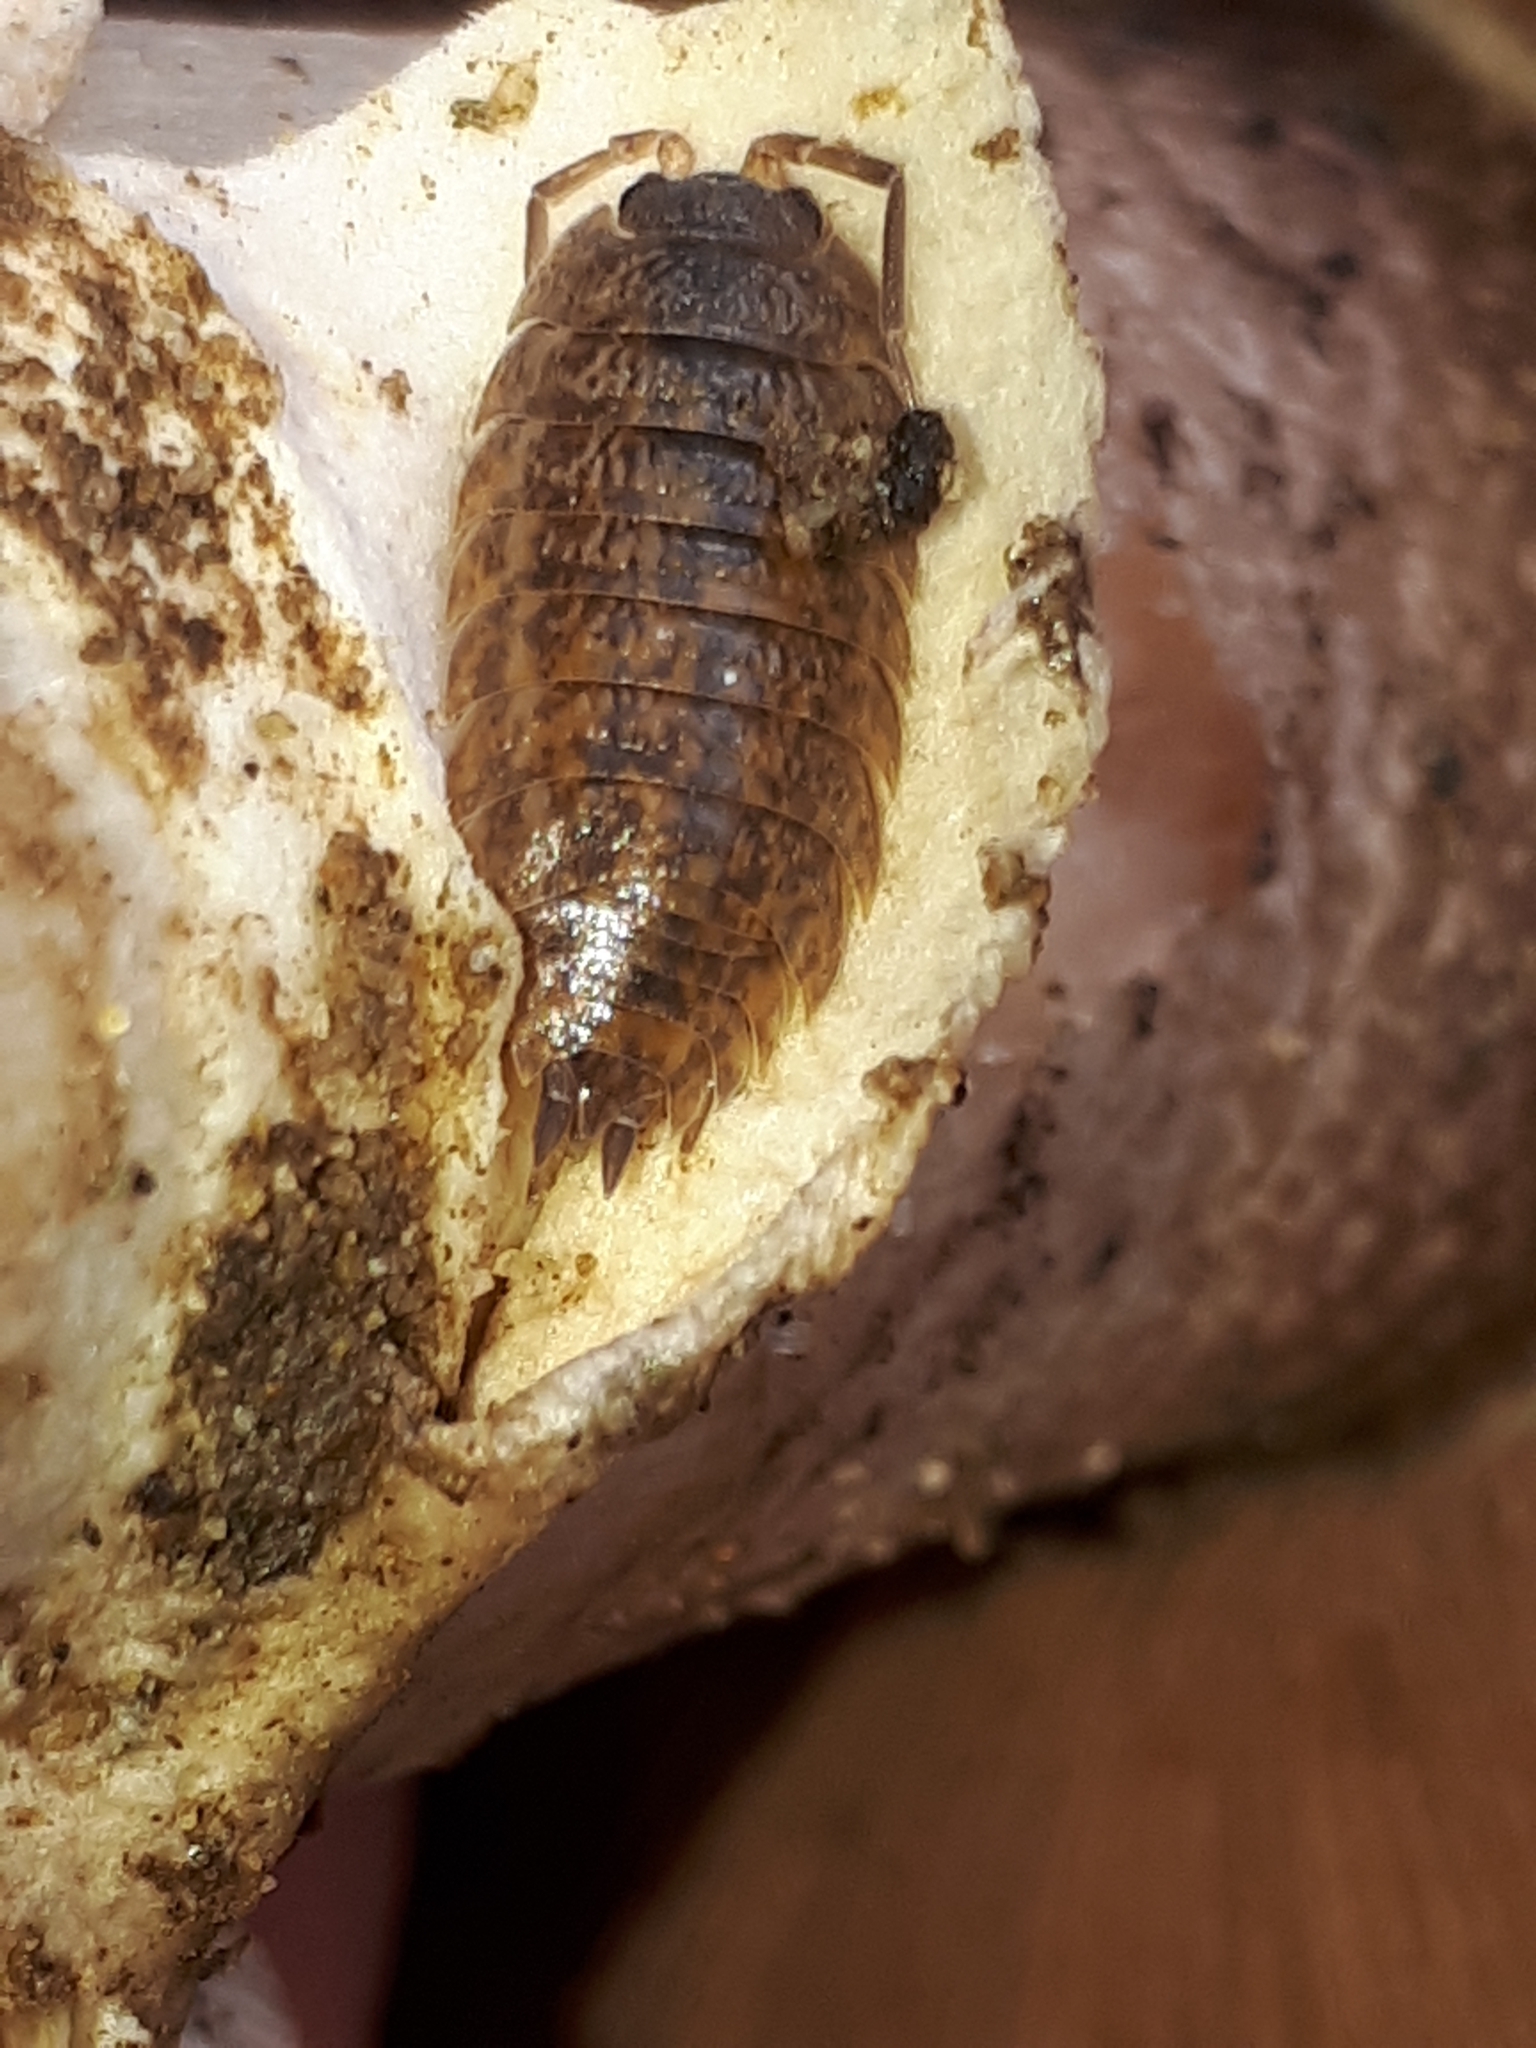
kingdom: Animalia
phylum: Arthropoda
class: Malacostraca
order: Isopoda
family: Trachelipodidae
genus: Trachelipus
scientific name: Trachelipus rathkii
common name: Isopod
